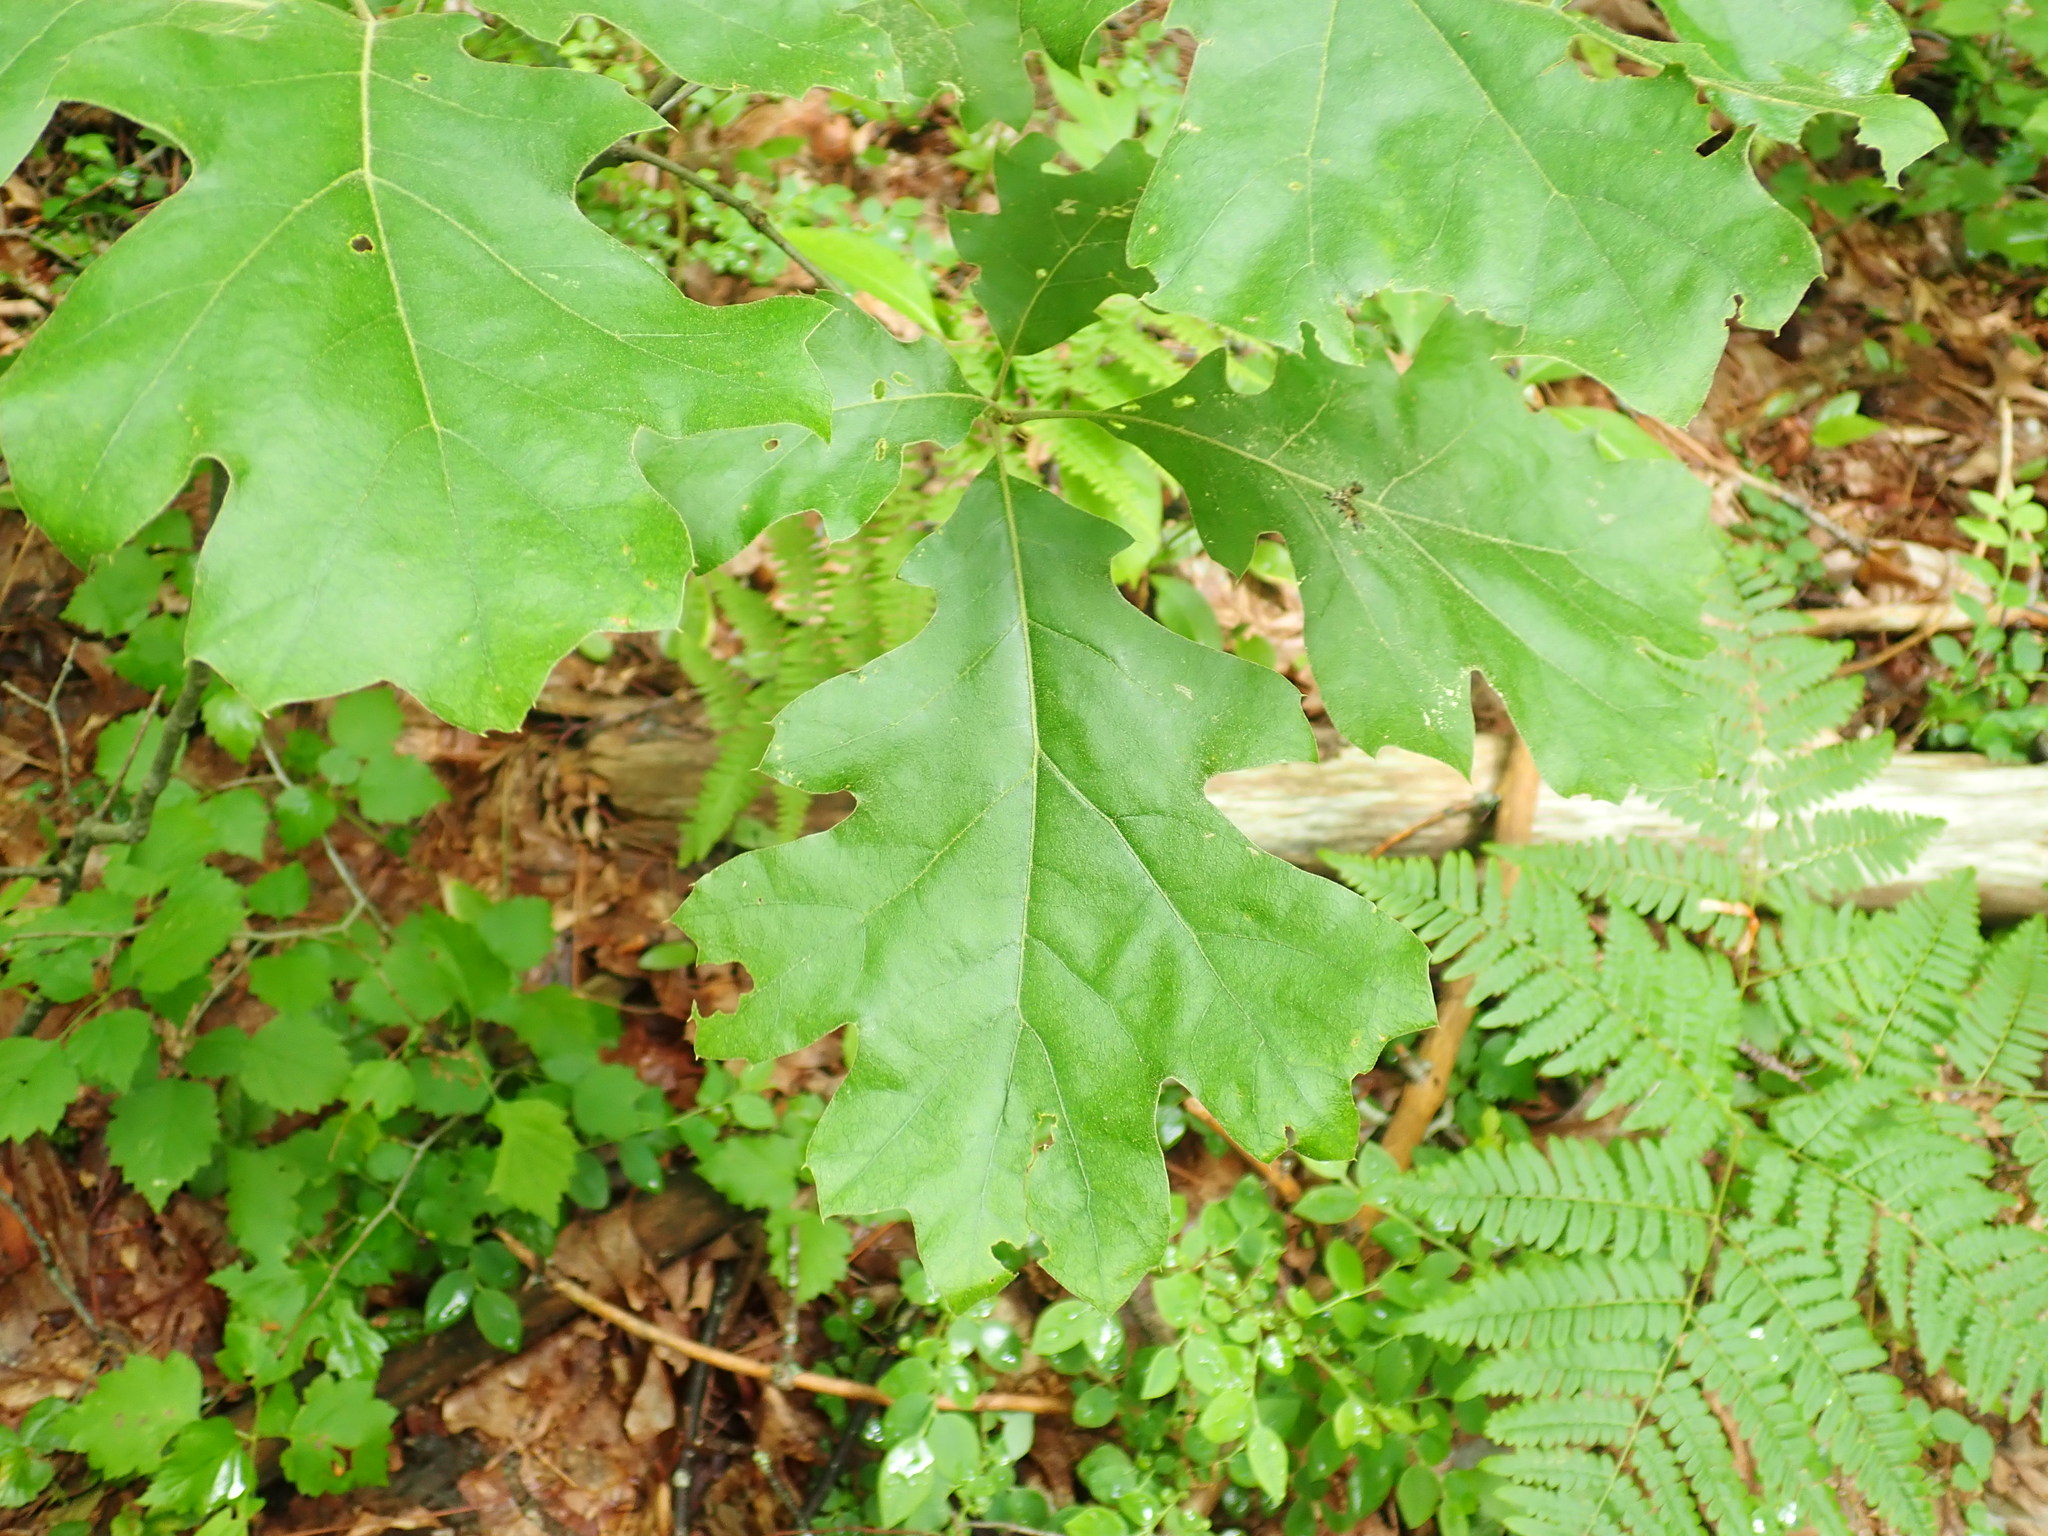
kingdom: Plantae
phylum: Tracheophyta
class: Magnoliopsida
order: Fagales
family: Fagaceae
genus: Quercus
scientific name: Quercus velutina
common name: Black oak
